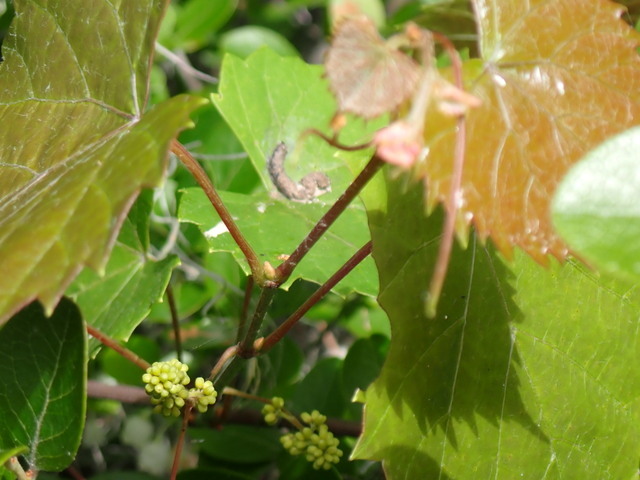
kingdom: Plantae
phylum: Tracheophyta
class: Magnoliopsida
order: Vitales
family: Vitaceae
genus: Vitis
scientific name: Vitis rotundifolia
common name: Muscadine grape
